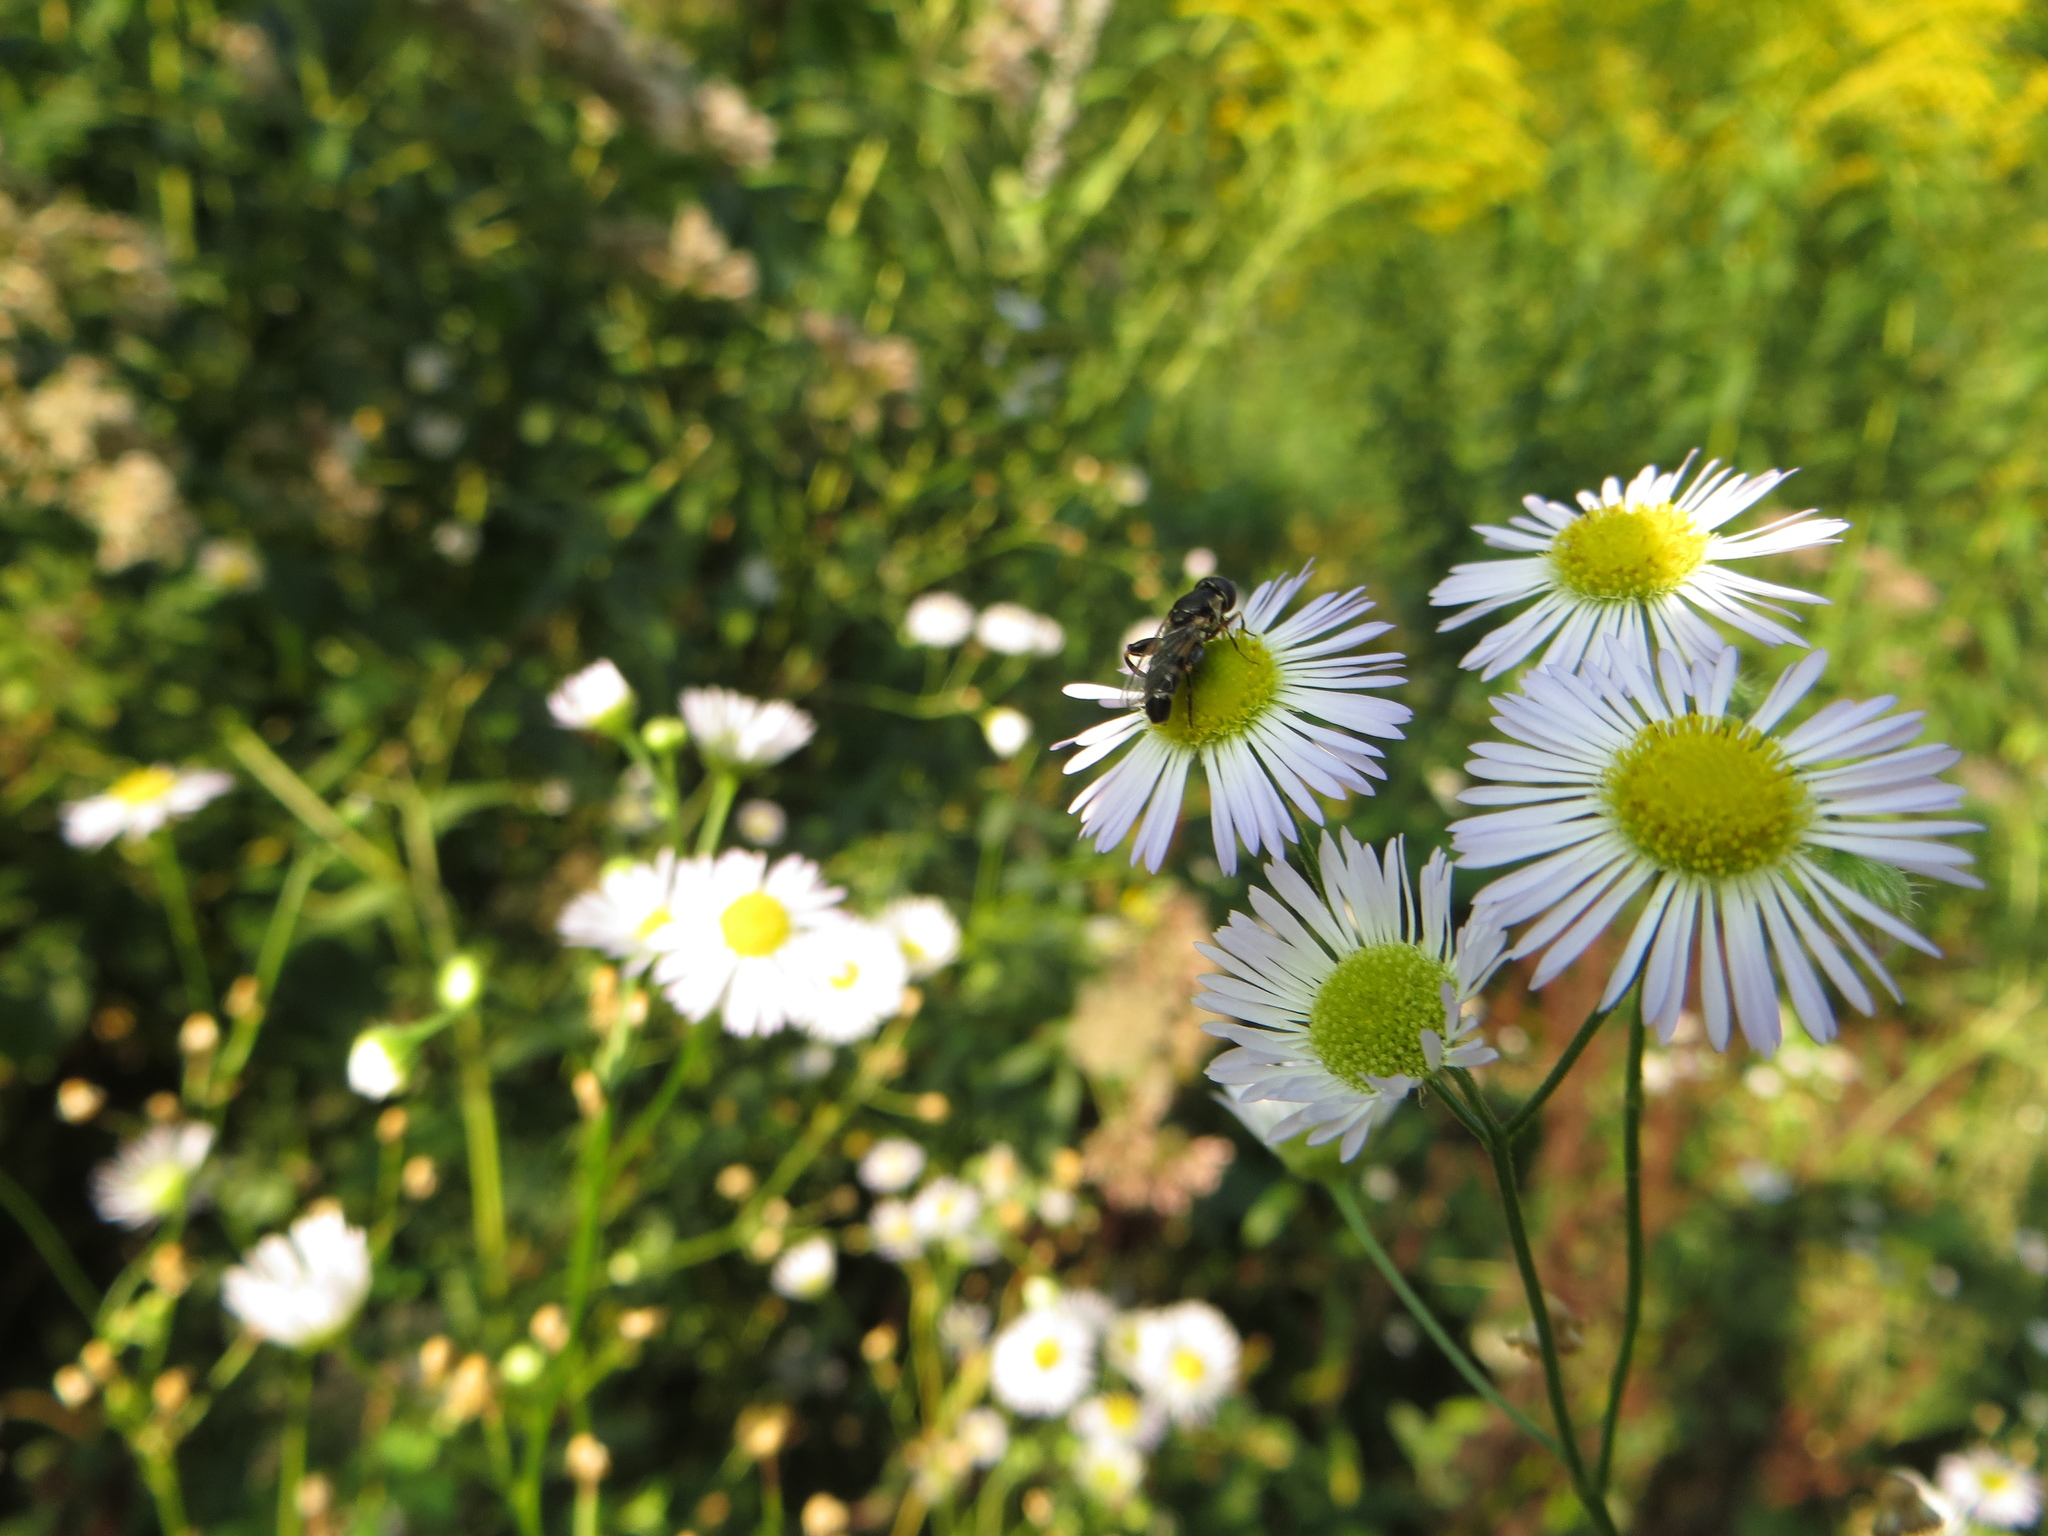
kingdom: Animalia
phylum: Arthropoda
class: Insecta
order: Diptera
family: Syrphidae
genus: Syritta
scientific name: Syritta pipiens
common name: Hover fly
